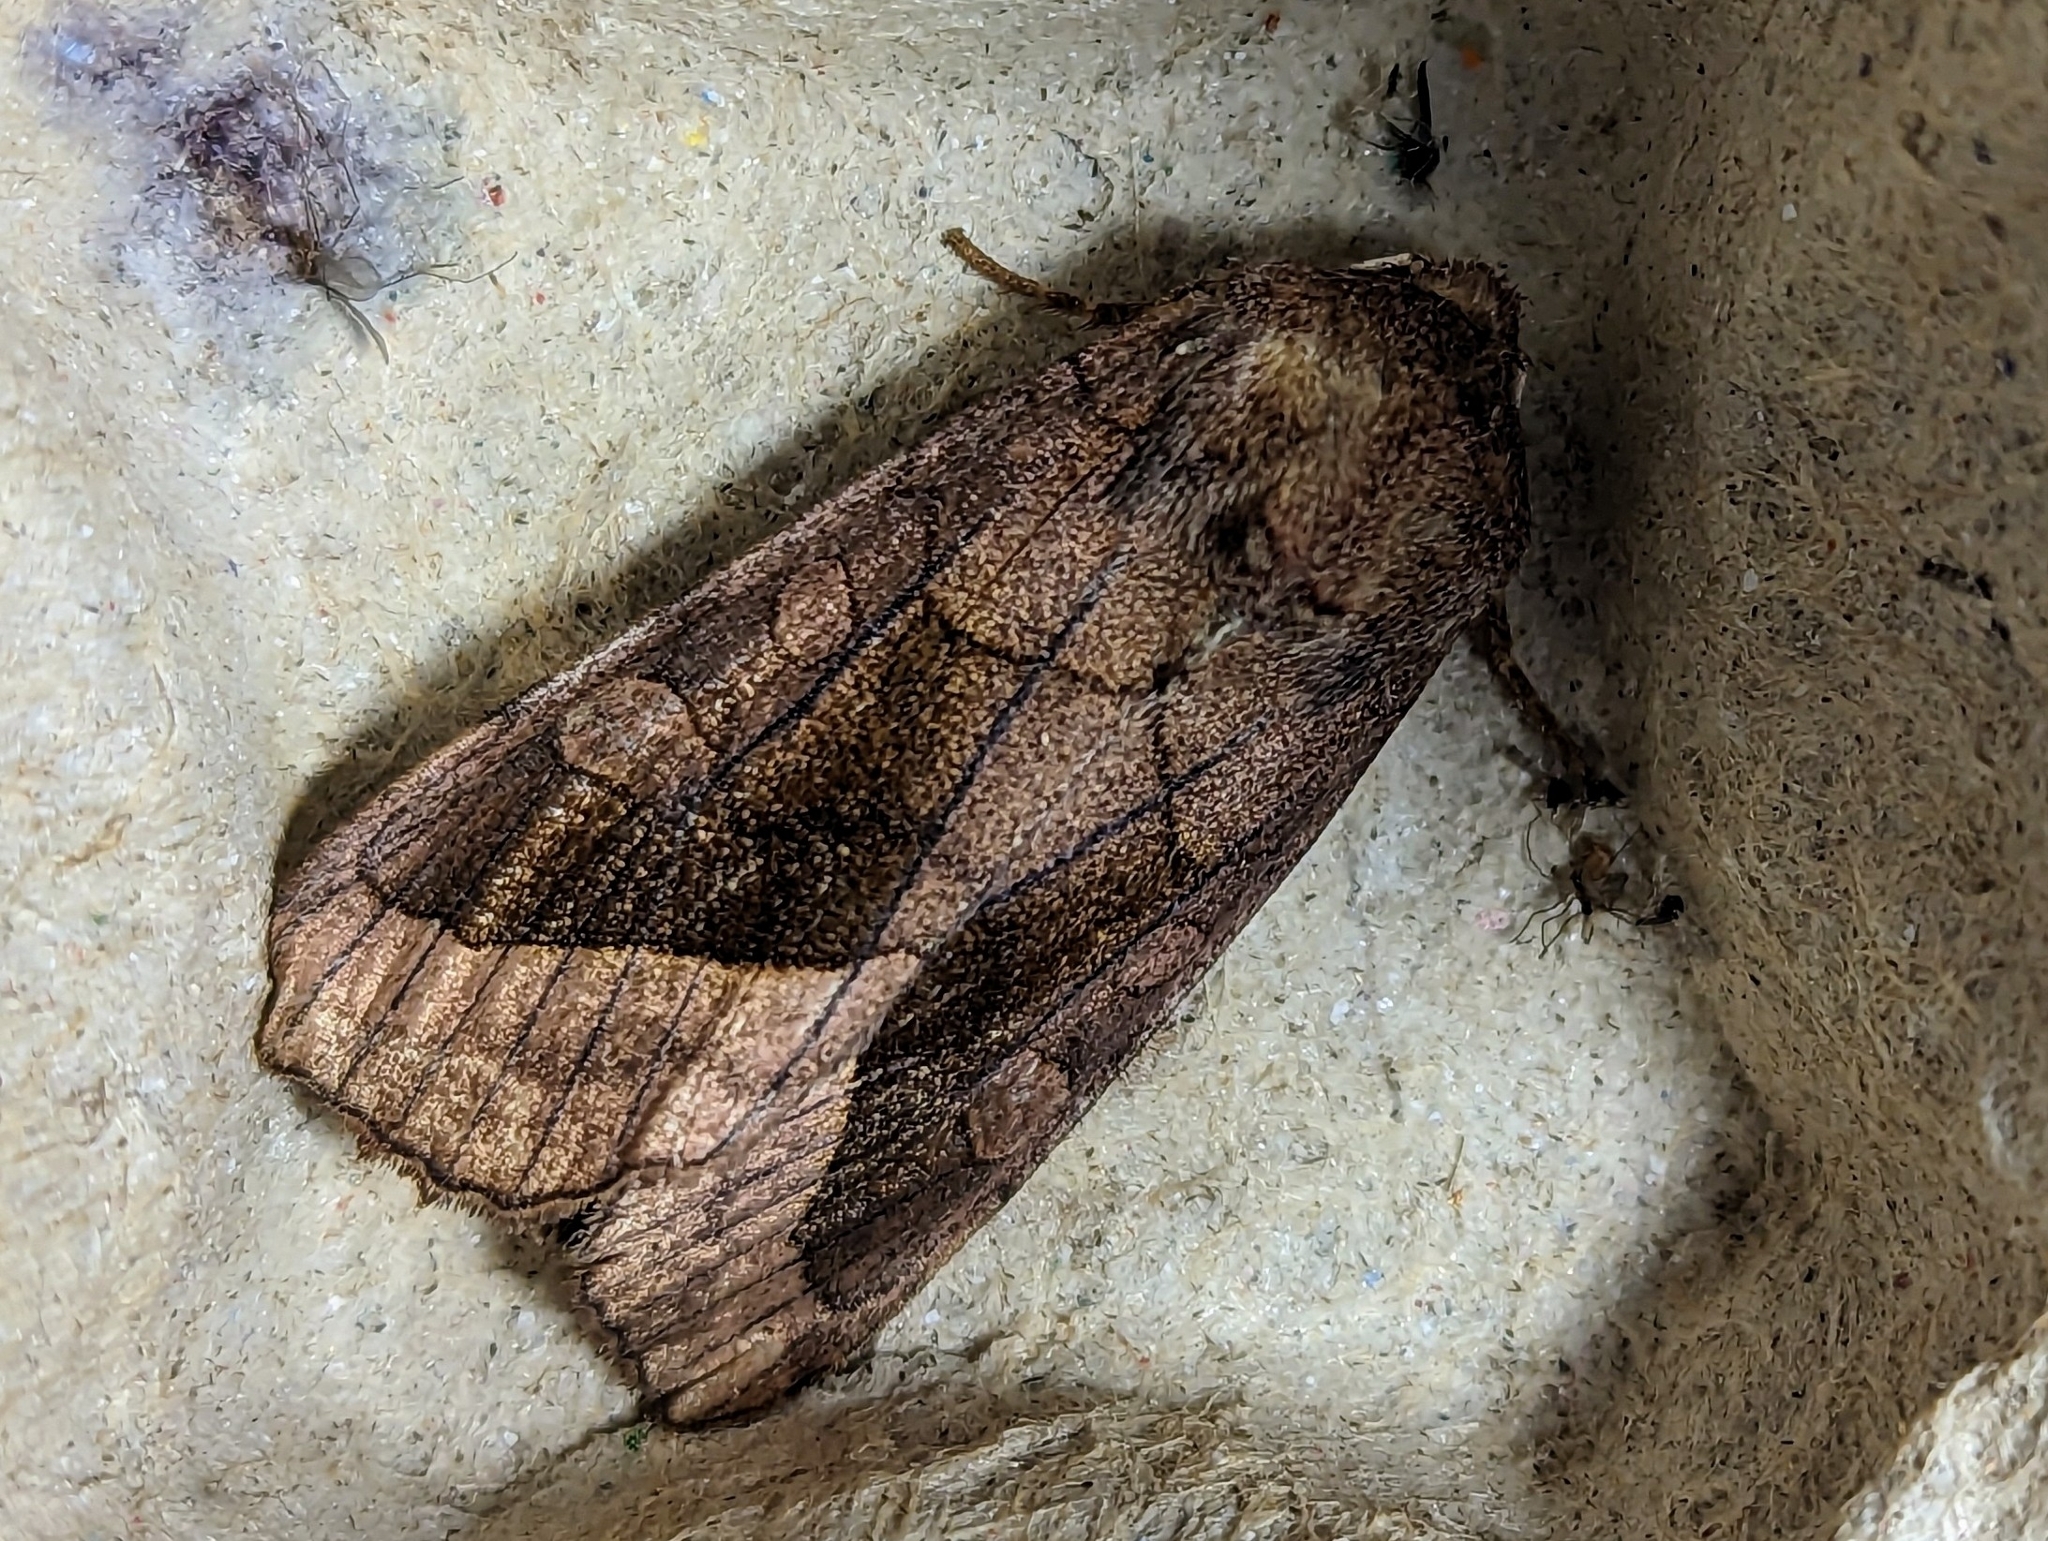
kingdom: Animalia
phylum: Arthropoda
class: Insecta
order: Lepidoptera
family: Noctuidae
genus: Hydraecia
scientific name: Hydraecia micacea
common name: Rosy rustic
